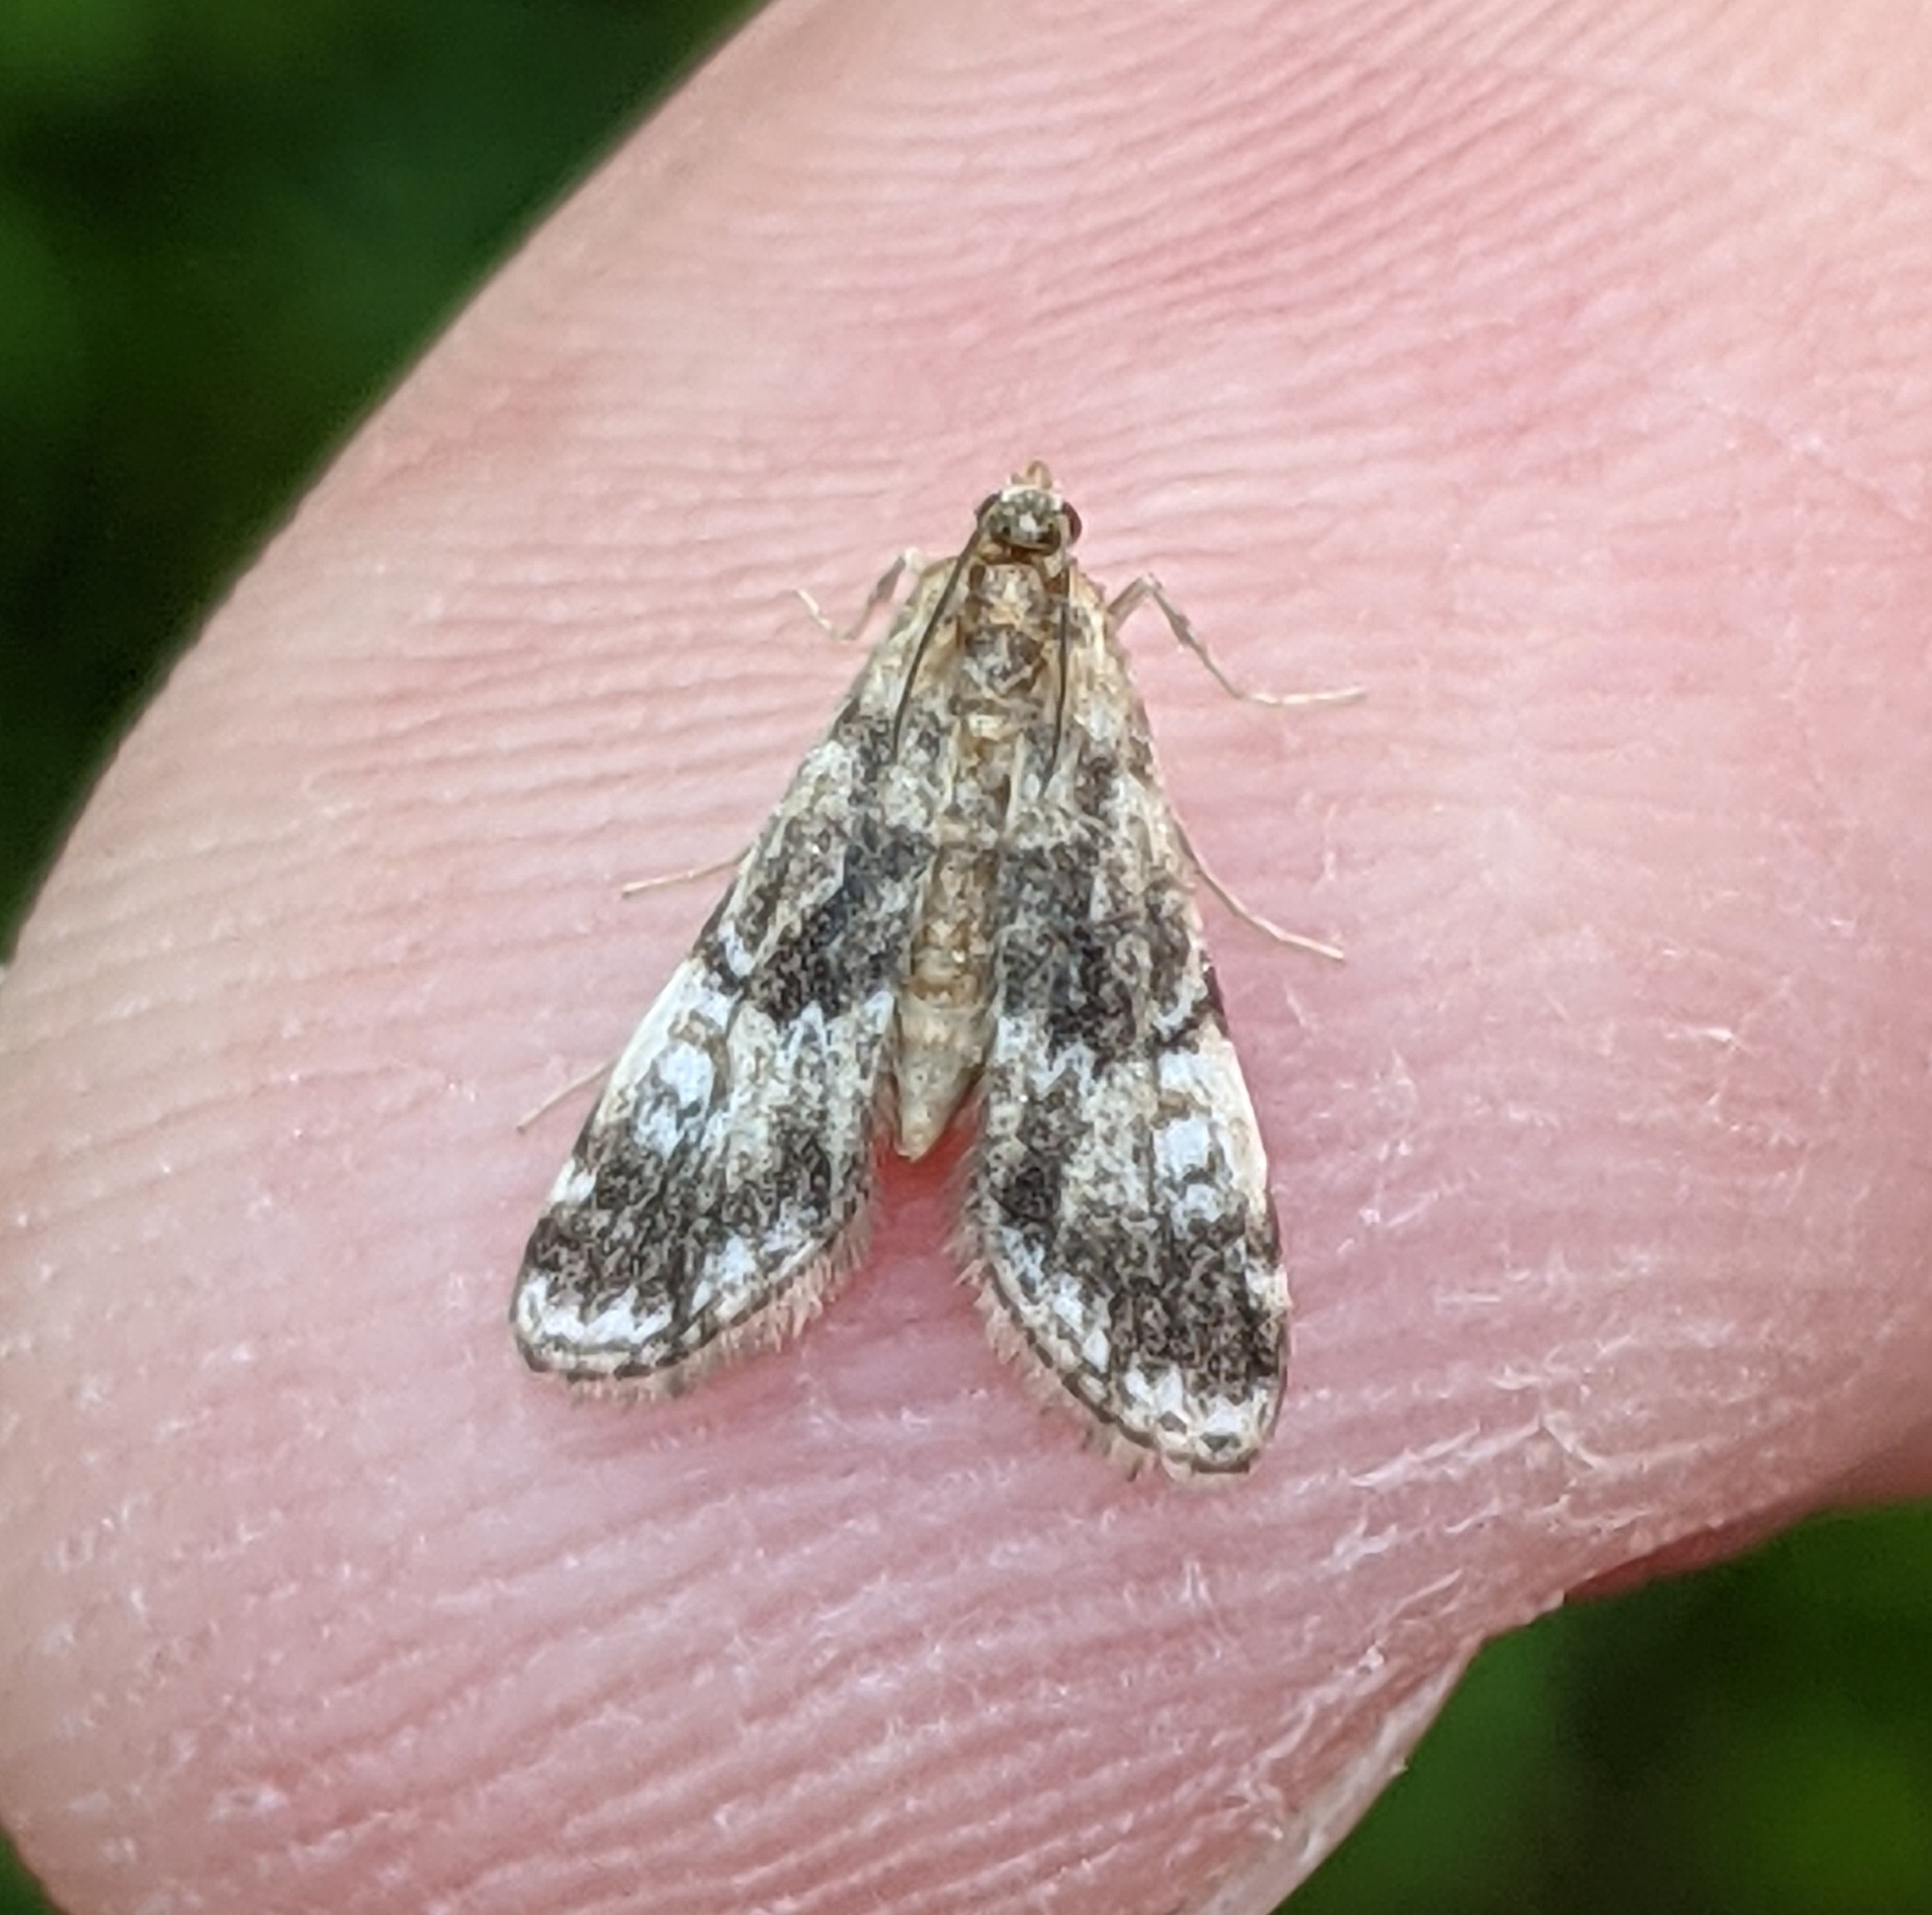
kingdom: Animalia
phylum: Arthropoda
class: Insecta
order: Lepidoptera
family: Crambidae
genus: Elophila
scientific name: Elophila obliteralis
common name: Waterlily leafcutter moth
